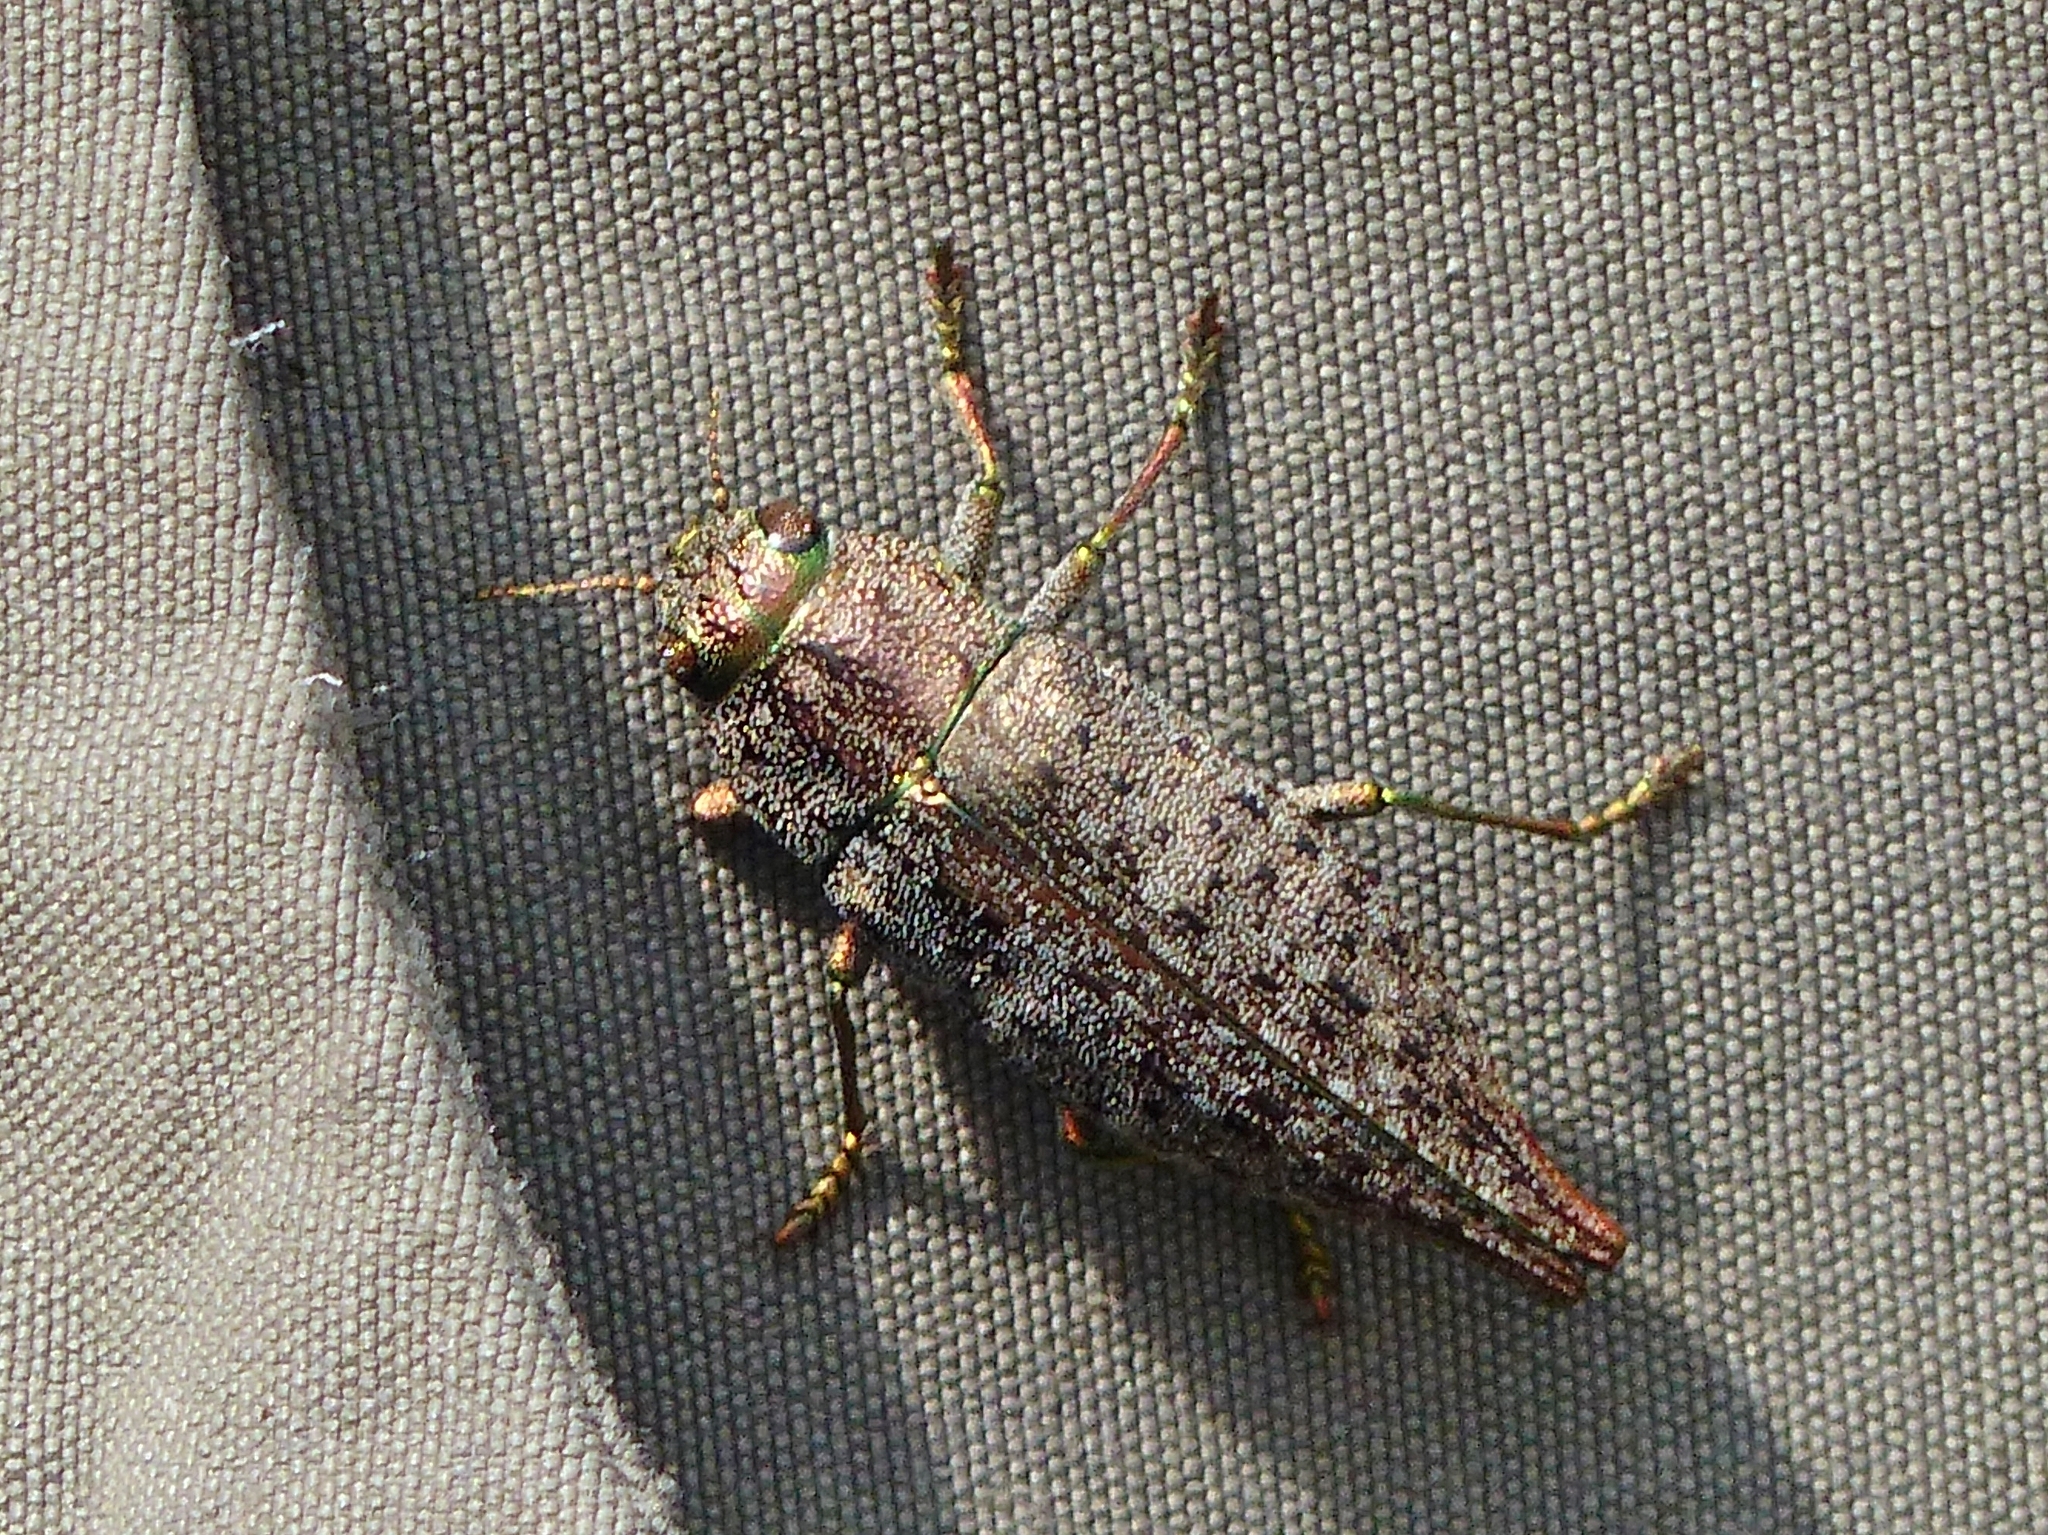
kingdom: Animalia
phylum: Arthropoda
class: Insecta
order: Coleoptera
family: Buprestidae
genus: Dicerca
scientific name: Dicerca divaricata
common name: Flat-headed hardwood borer
